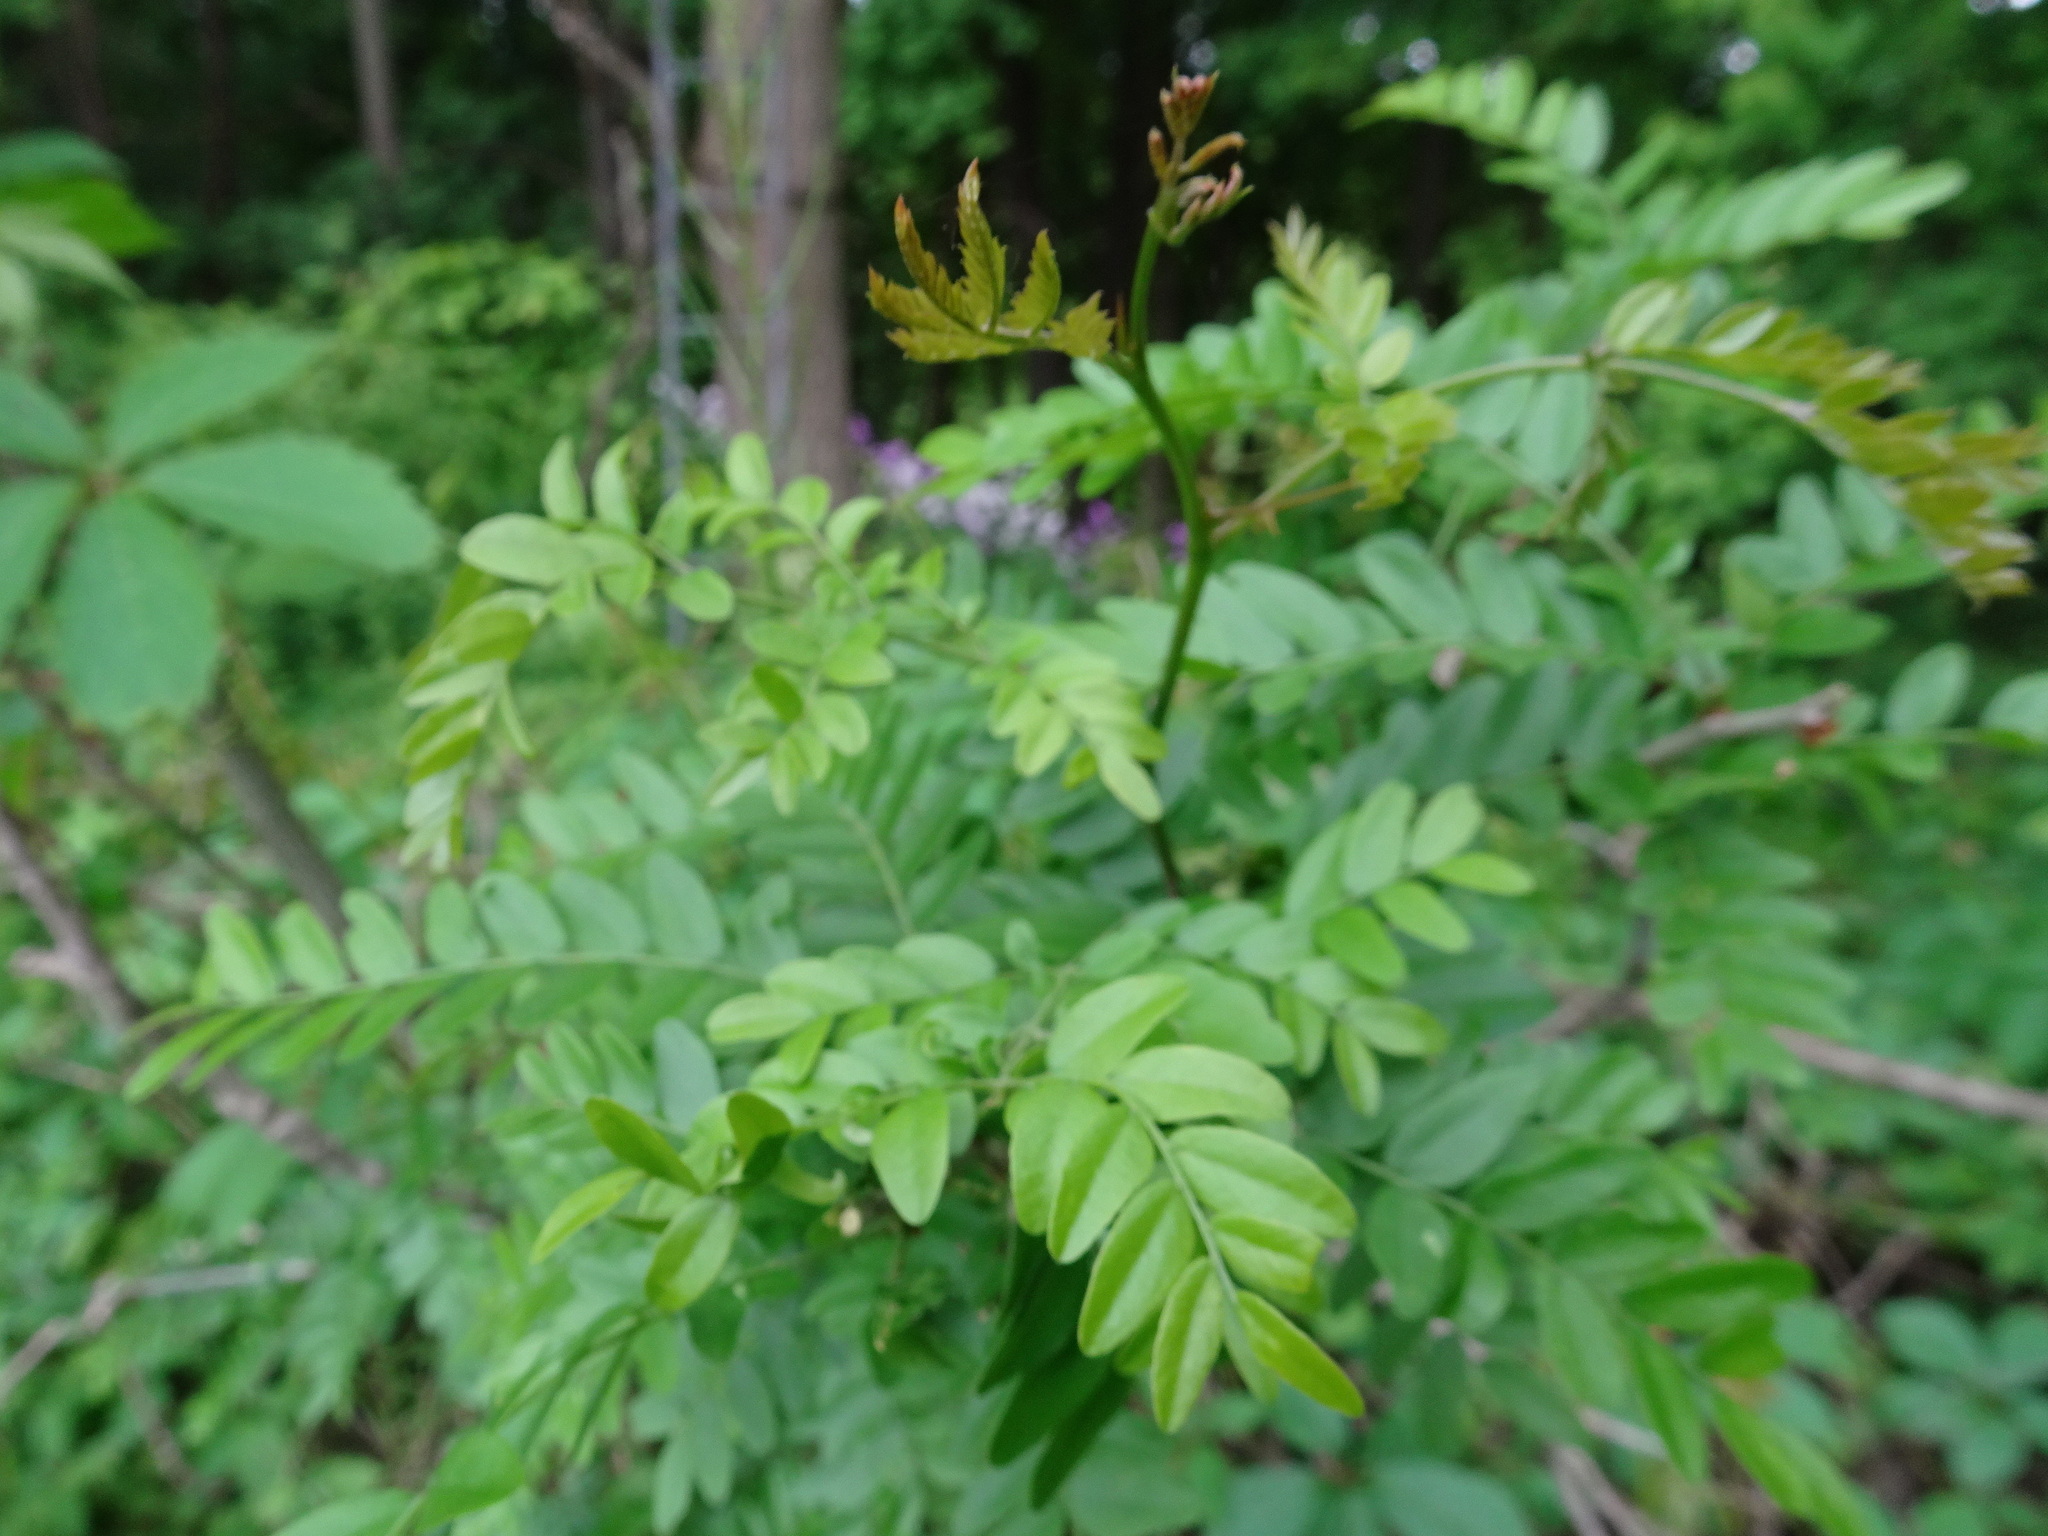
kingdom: Plantae
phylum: Tracheophyta
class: Magnoliopsida
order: Fabales
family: Fabaceae
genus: Gleditsia
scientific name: Gleditsia triacanthos
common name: Common honeylocust
